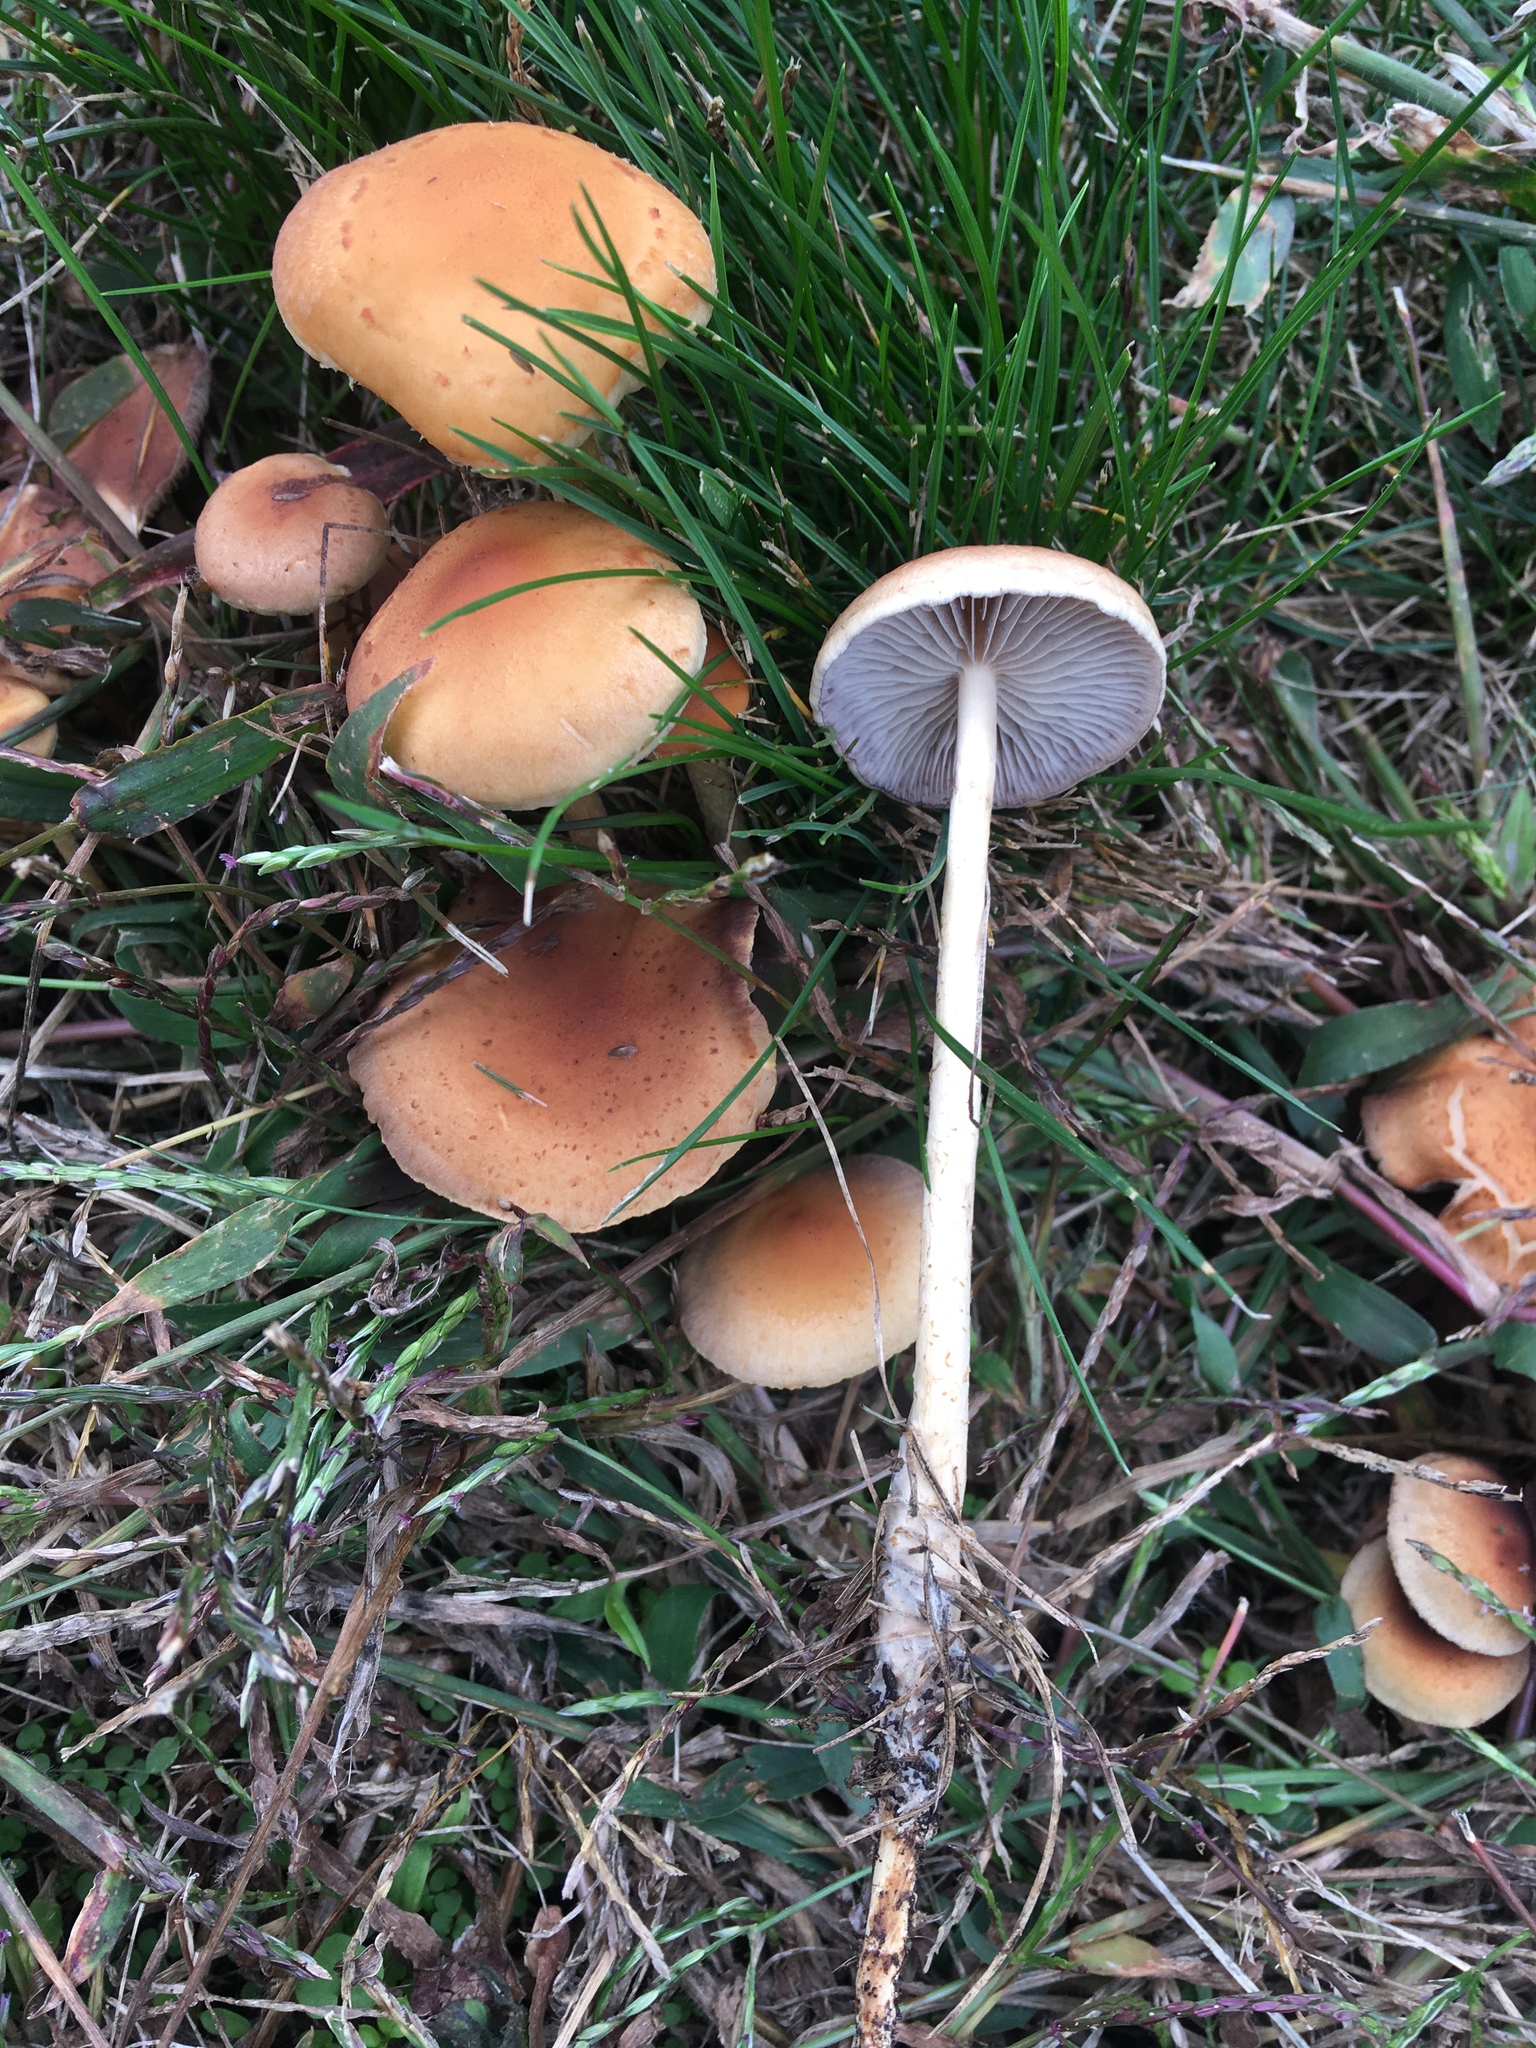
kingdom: Fungi
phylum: Basidiomycota
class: Agaricomycetes
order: Agaricales
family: Hymenogastraceae
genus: Psilocybe
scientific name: Psilocybe tuberifera
